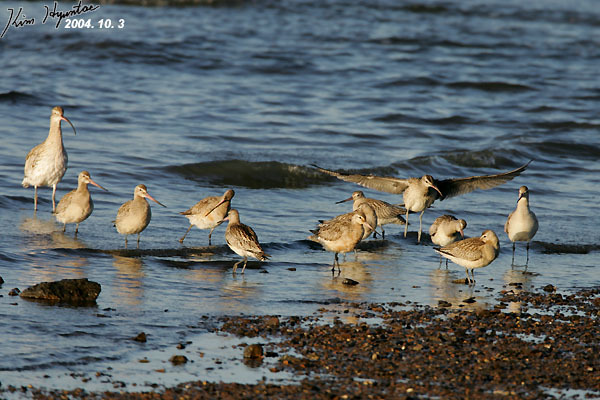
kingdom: Animalia
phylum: Chordata
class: Aves
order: Charadriiformes
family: Scolopacidae
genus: Limosa
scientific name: Limosa lapponica
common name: Bar-tailed godwit
